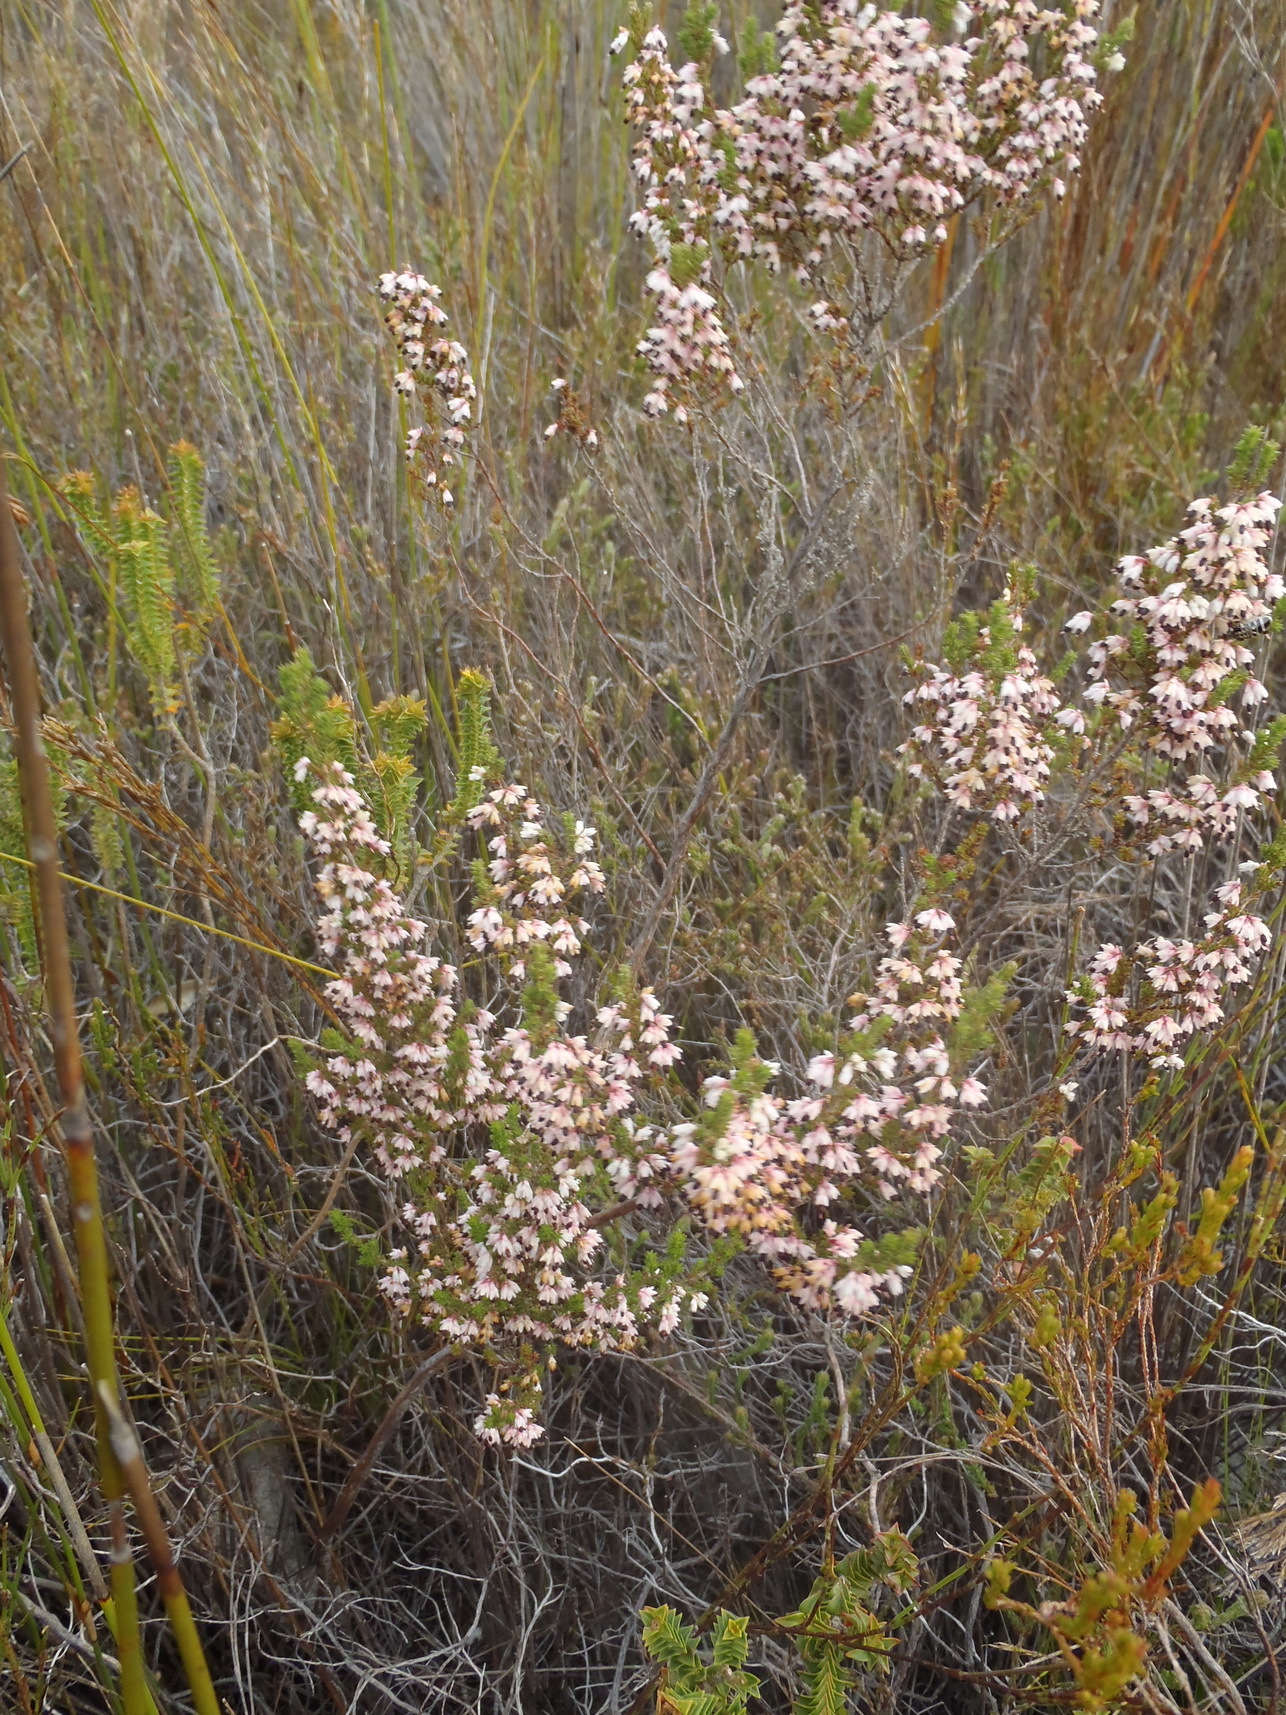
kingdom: Plantae
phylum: Tracheophyta
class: Magnoliopsida
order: Ericales
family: Ericaceae
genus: Erica
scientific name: Erica placentiflora
